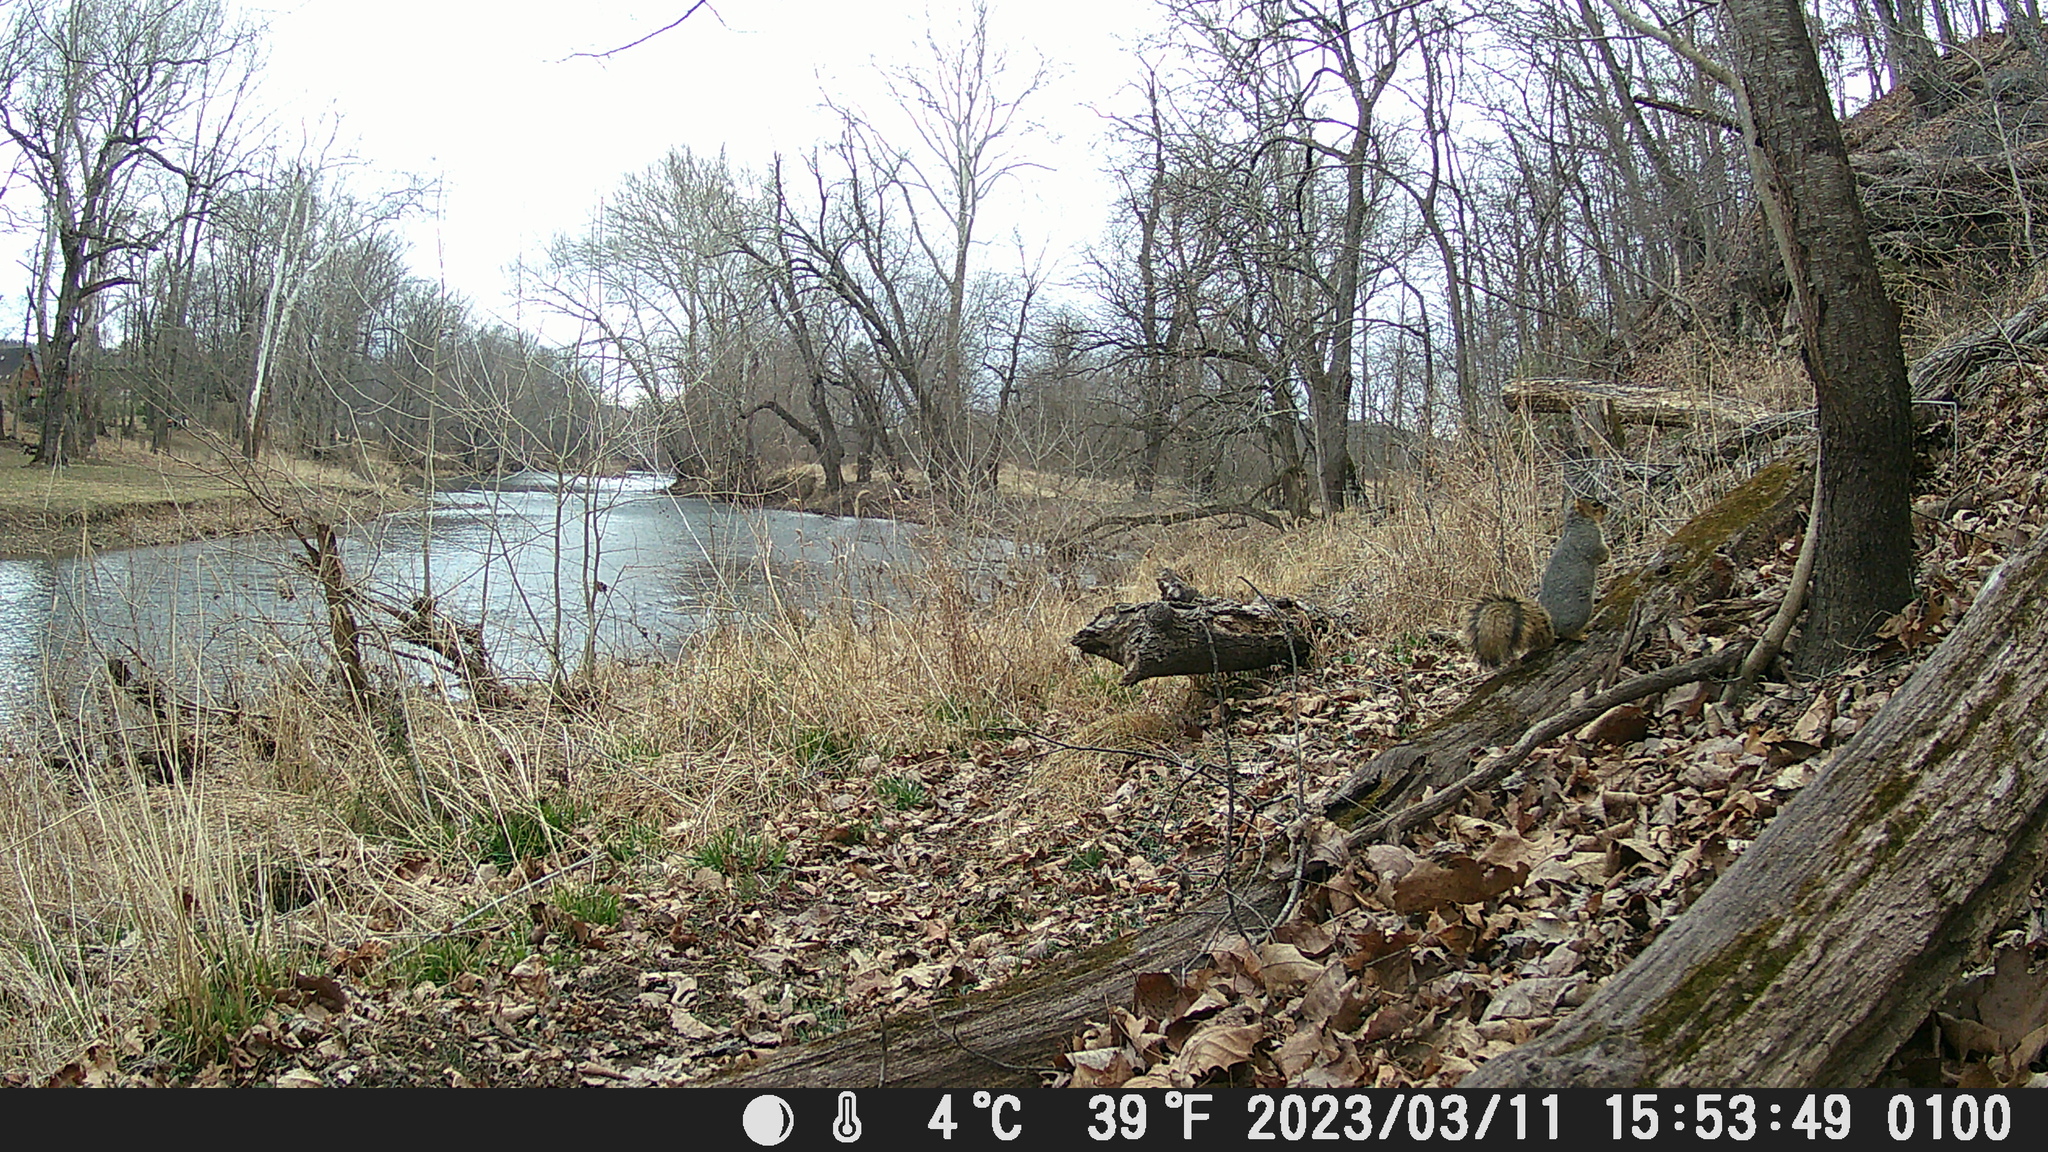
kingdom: Animalia
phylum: Chordata
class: Mammalia
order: Rodentia
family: Sciuridae
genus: Sciurus
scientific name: Sciurus niger
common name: Fox squirrel
